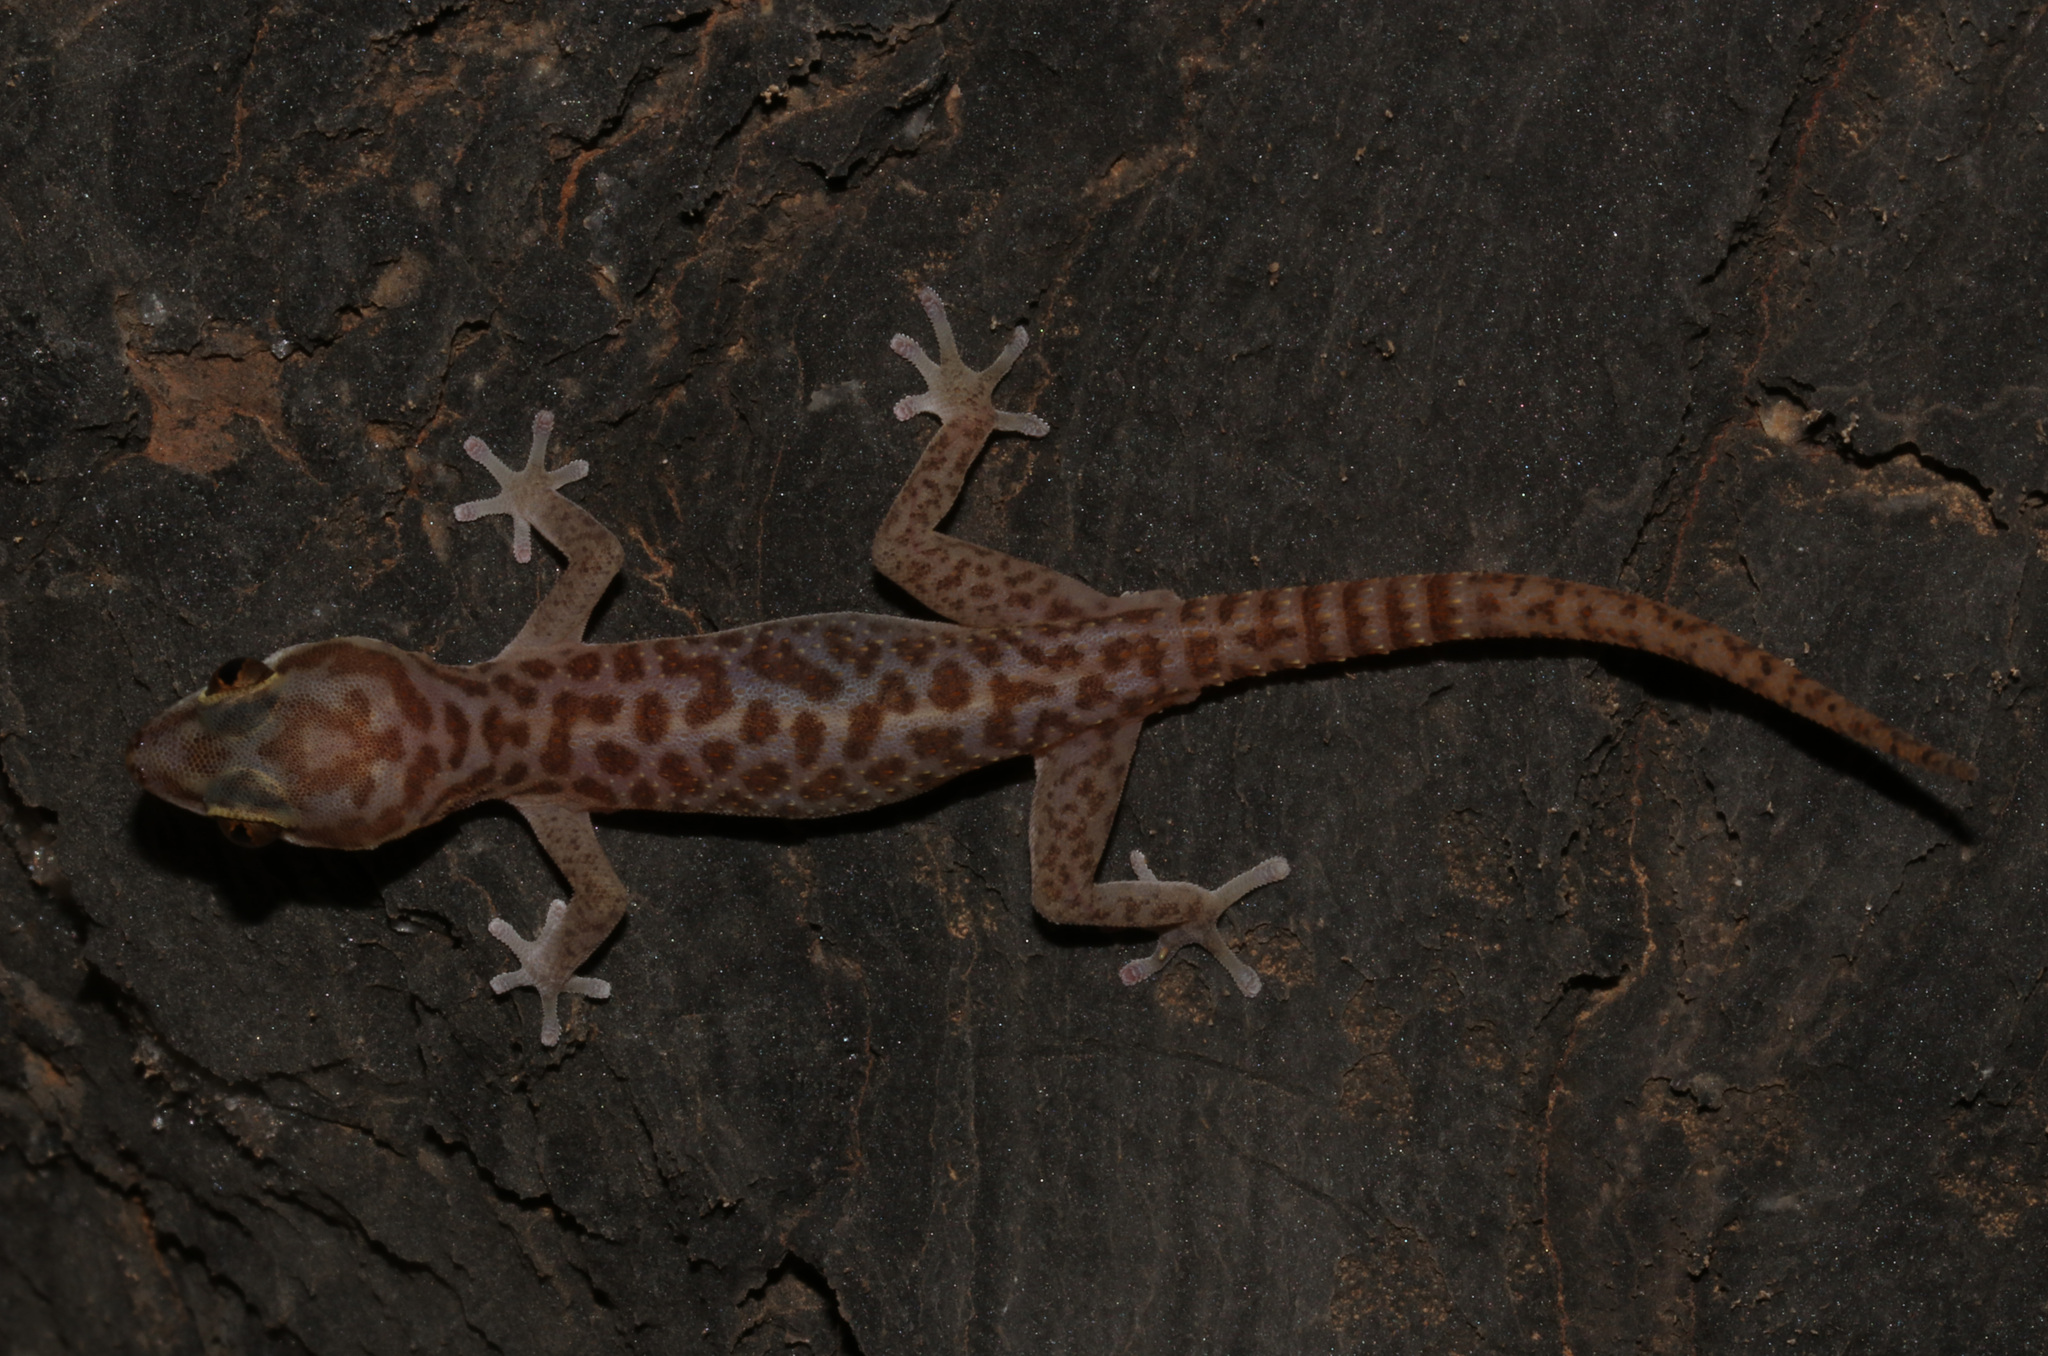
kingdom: Animalia
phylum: Chordata
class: Squamata
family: Gekkonidae
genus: Pachydactylus
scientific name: Pachydactylus carinatus
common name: Richtersveld gecko
